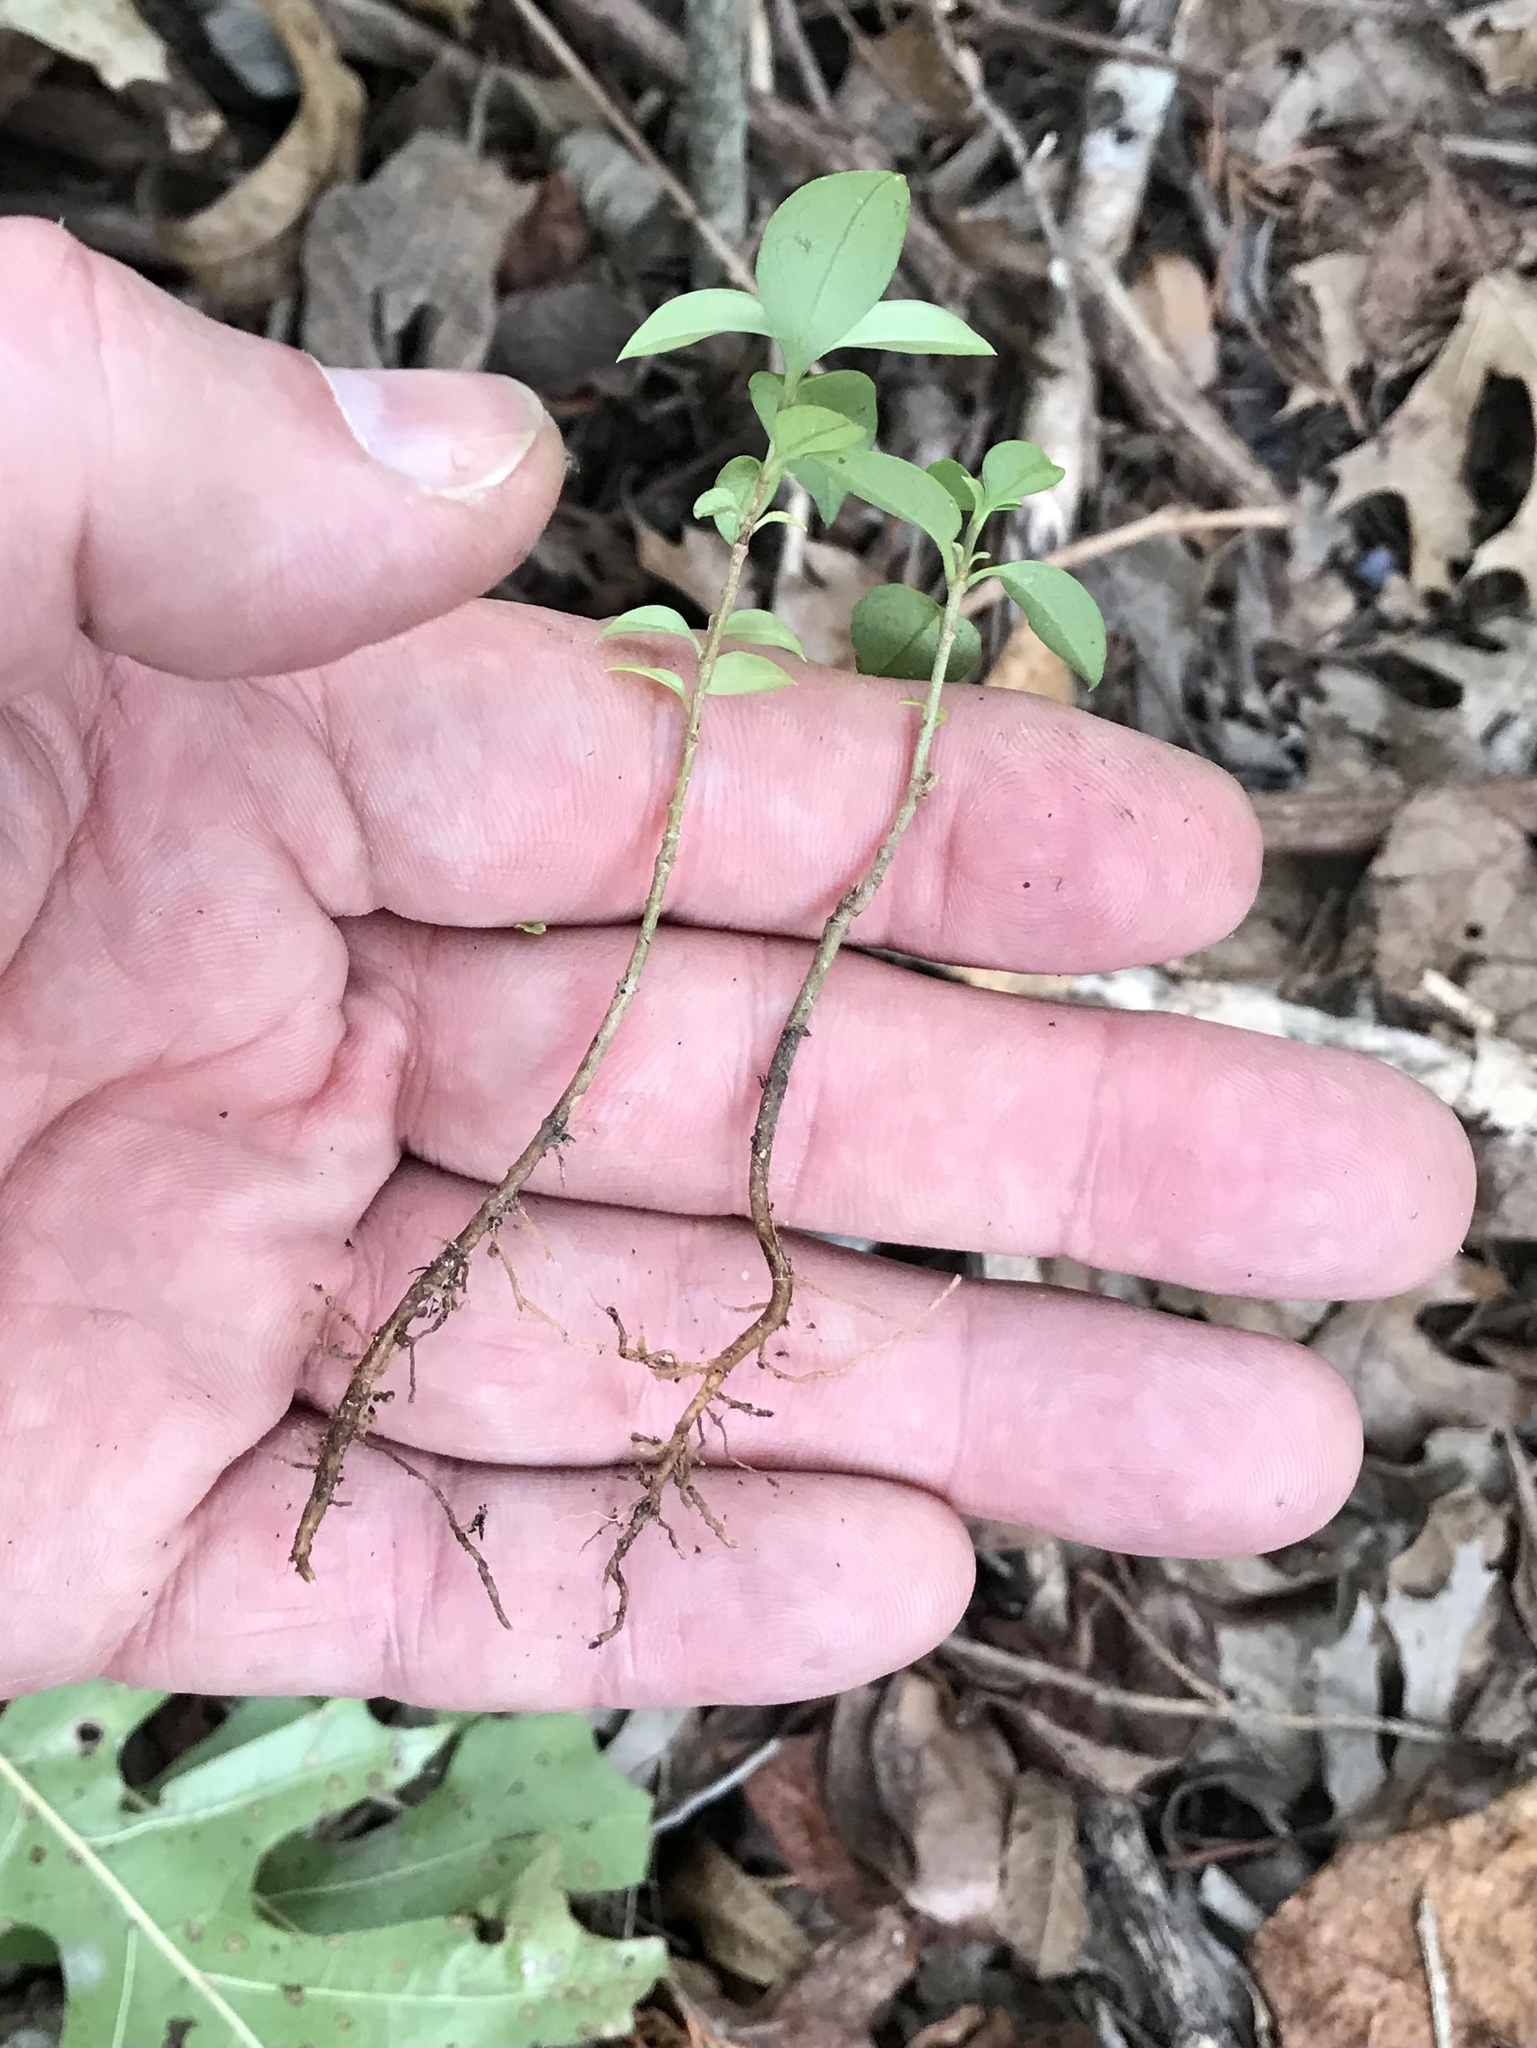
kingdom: Plantae
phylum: Tracheophyta
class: Magnoliopsida
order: Lamiales
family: Oleaceae
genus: Ligustrum
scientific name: Ligustrum lucidum
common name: Glossy privet
